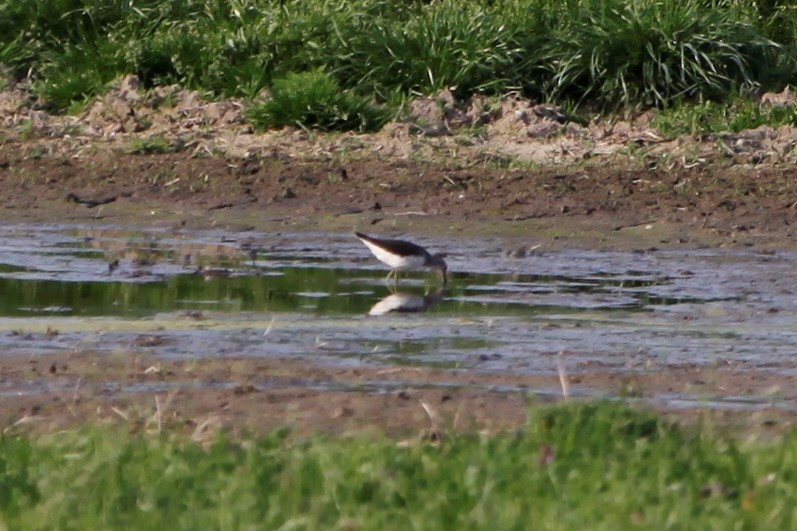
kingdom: Animalia
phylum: Chordata
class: Aves
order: Charadriiformes
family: Scolopacidae
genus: Tringa
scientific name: Tringa ochropus
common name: Green sandpiper
